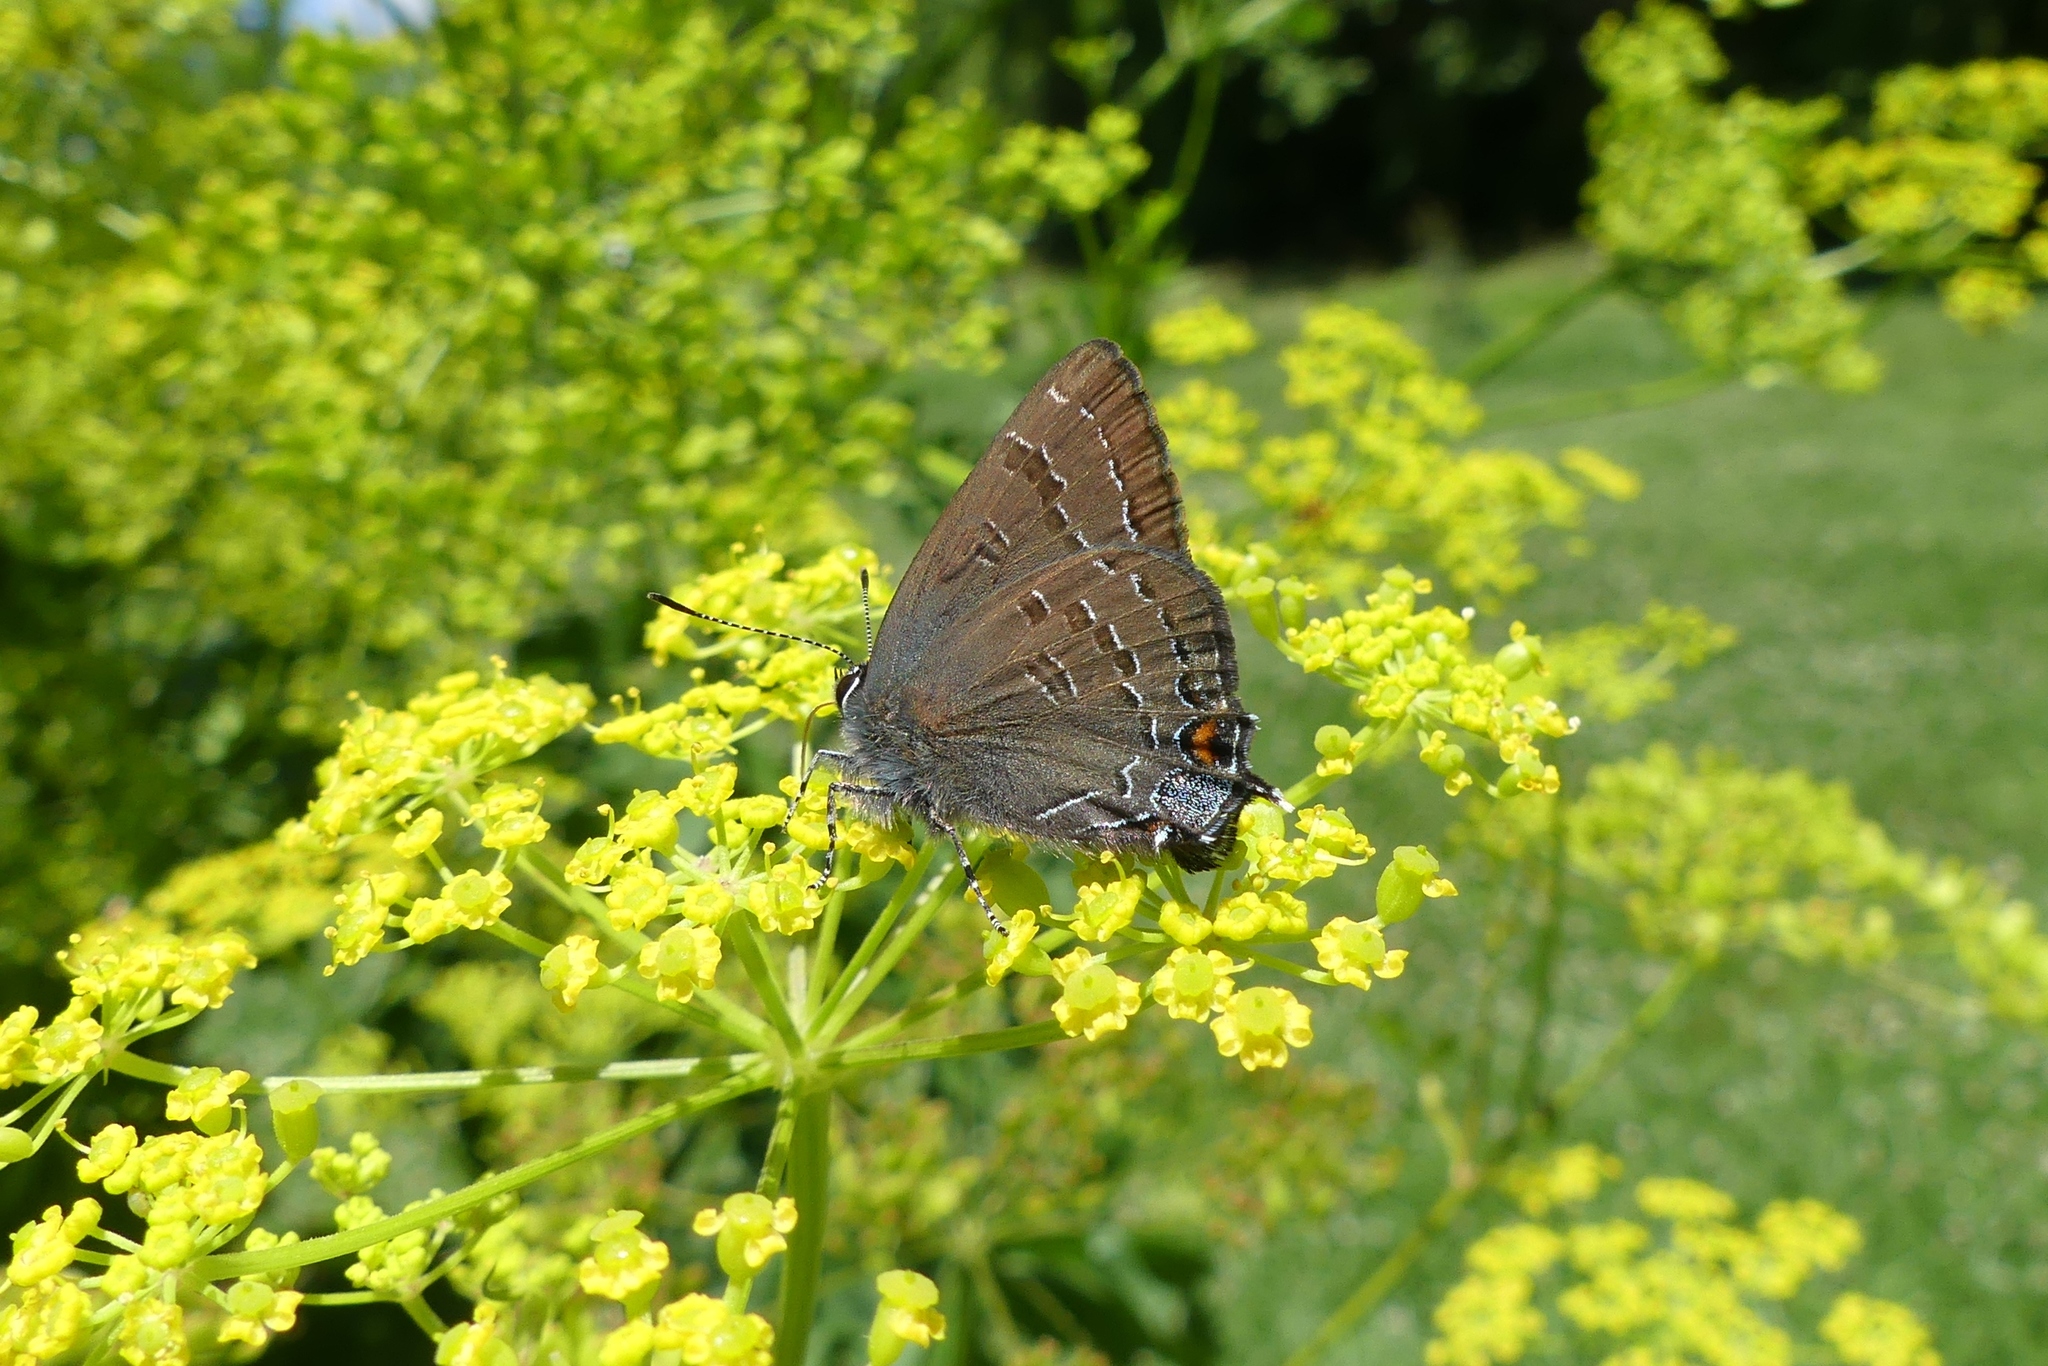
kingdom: Animalia
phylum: Arthropoda
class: Insecta
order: Lepidoptera
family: Lycaenidae
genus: Satyrium
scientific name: Satyrium calanus
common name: Banded hairstreak
